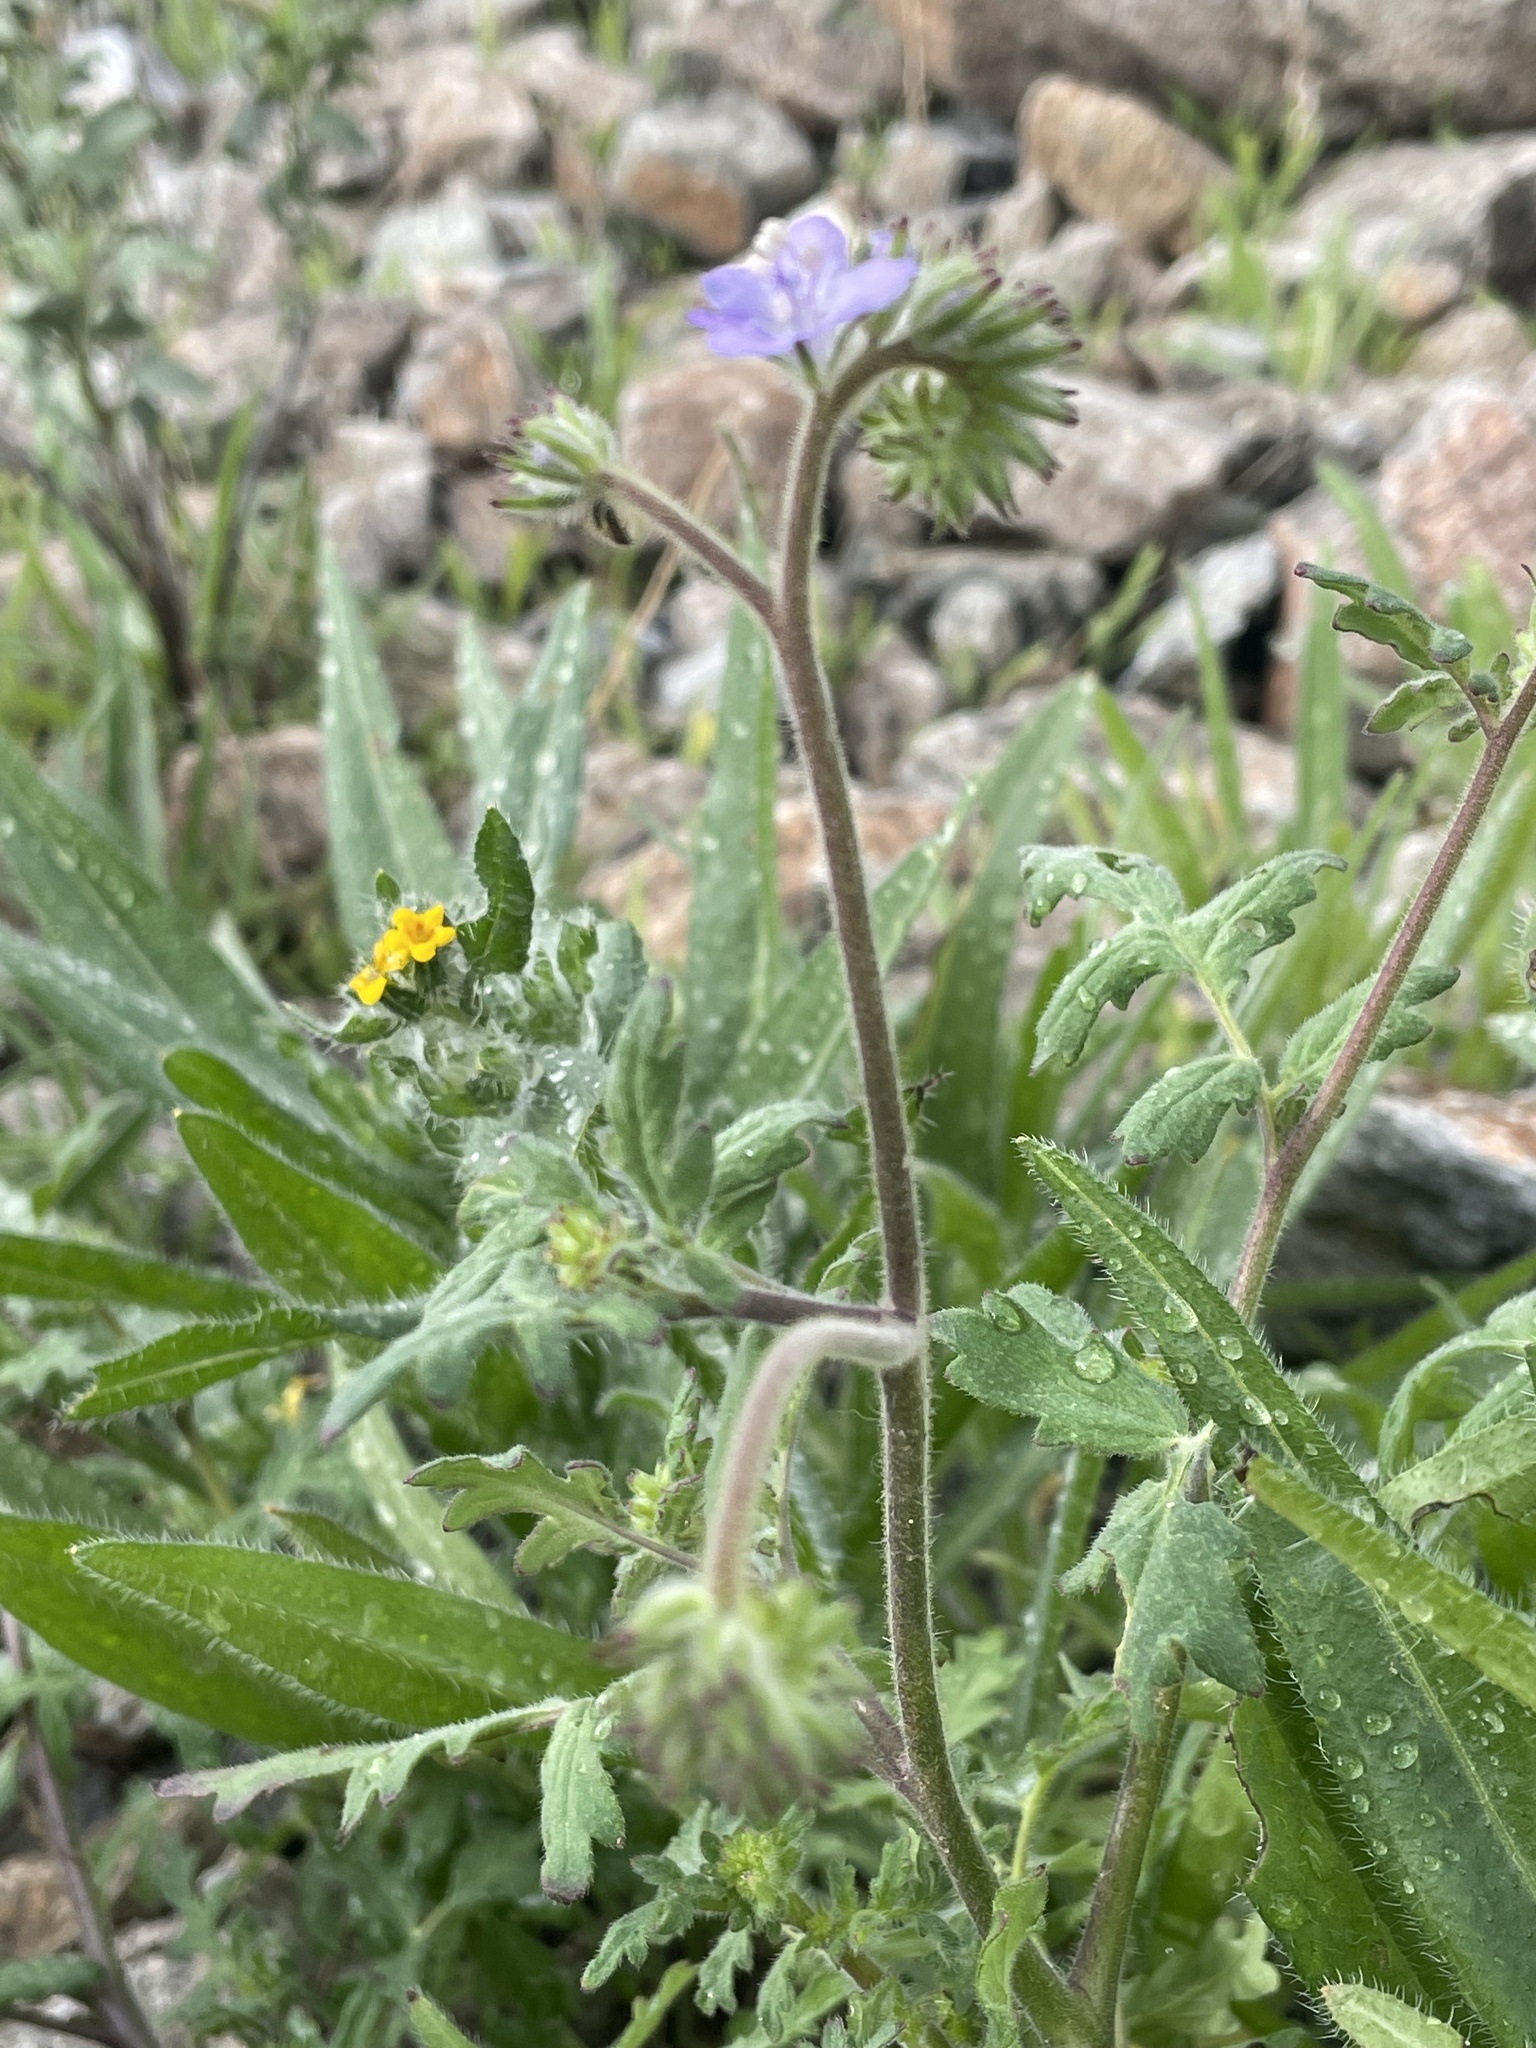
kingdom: Plantae
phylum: Tracheophyta
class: Magnoliopsida
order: Boraginales
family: Hydrophyllaceae
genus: Phacelia
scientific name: Phacelia distans
